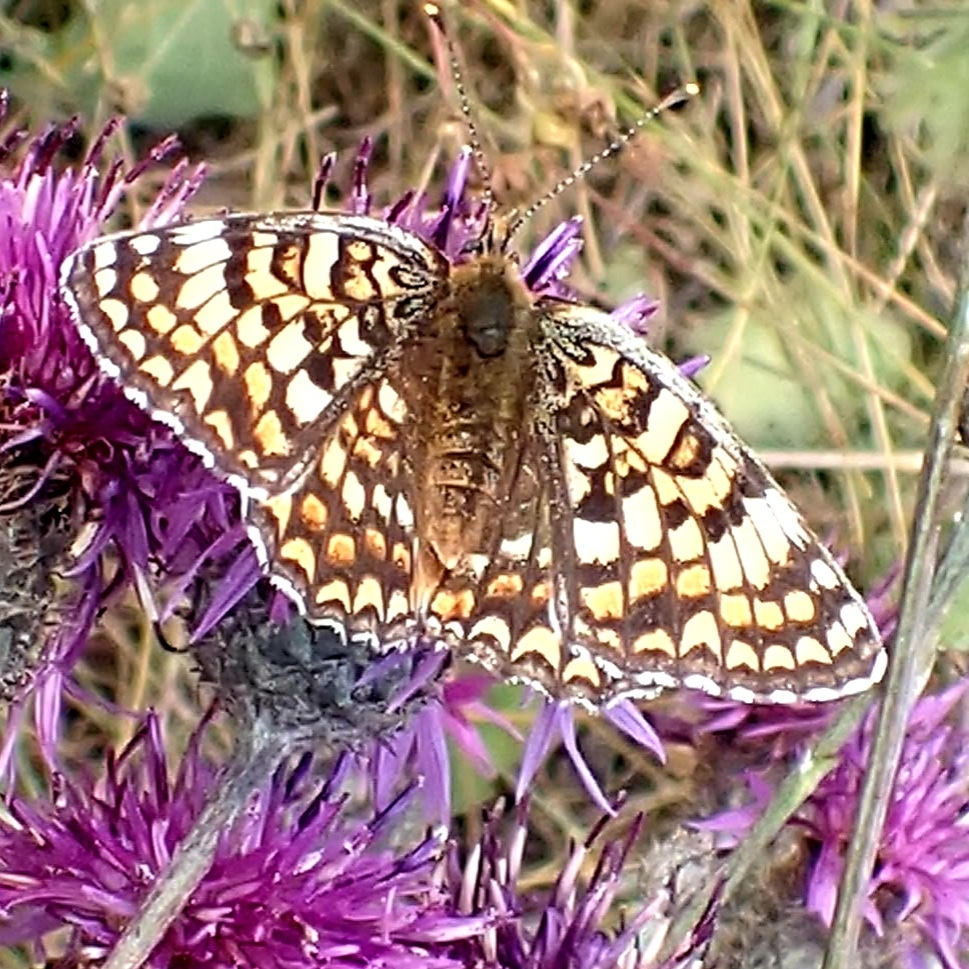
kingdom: Animalia
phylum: Arthropoda
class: Insecta
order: Lepidoptera
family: Nymphalidae
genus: Melitaea
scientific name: Melitaea phoebe
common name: Knapweed fritillary
